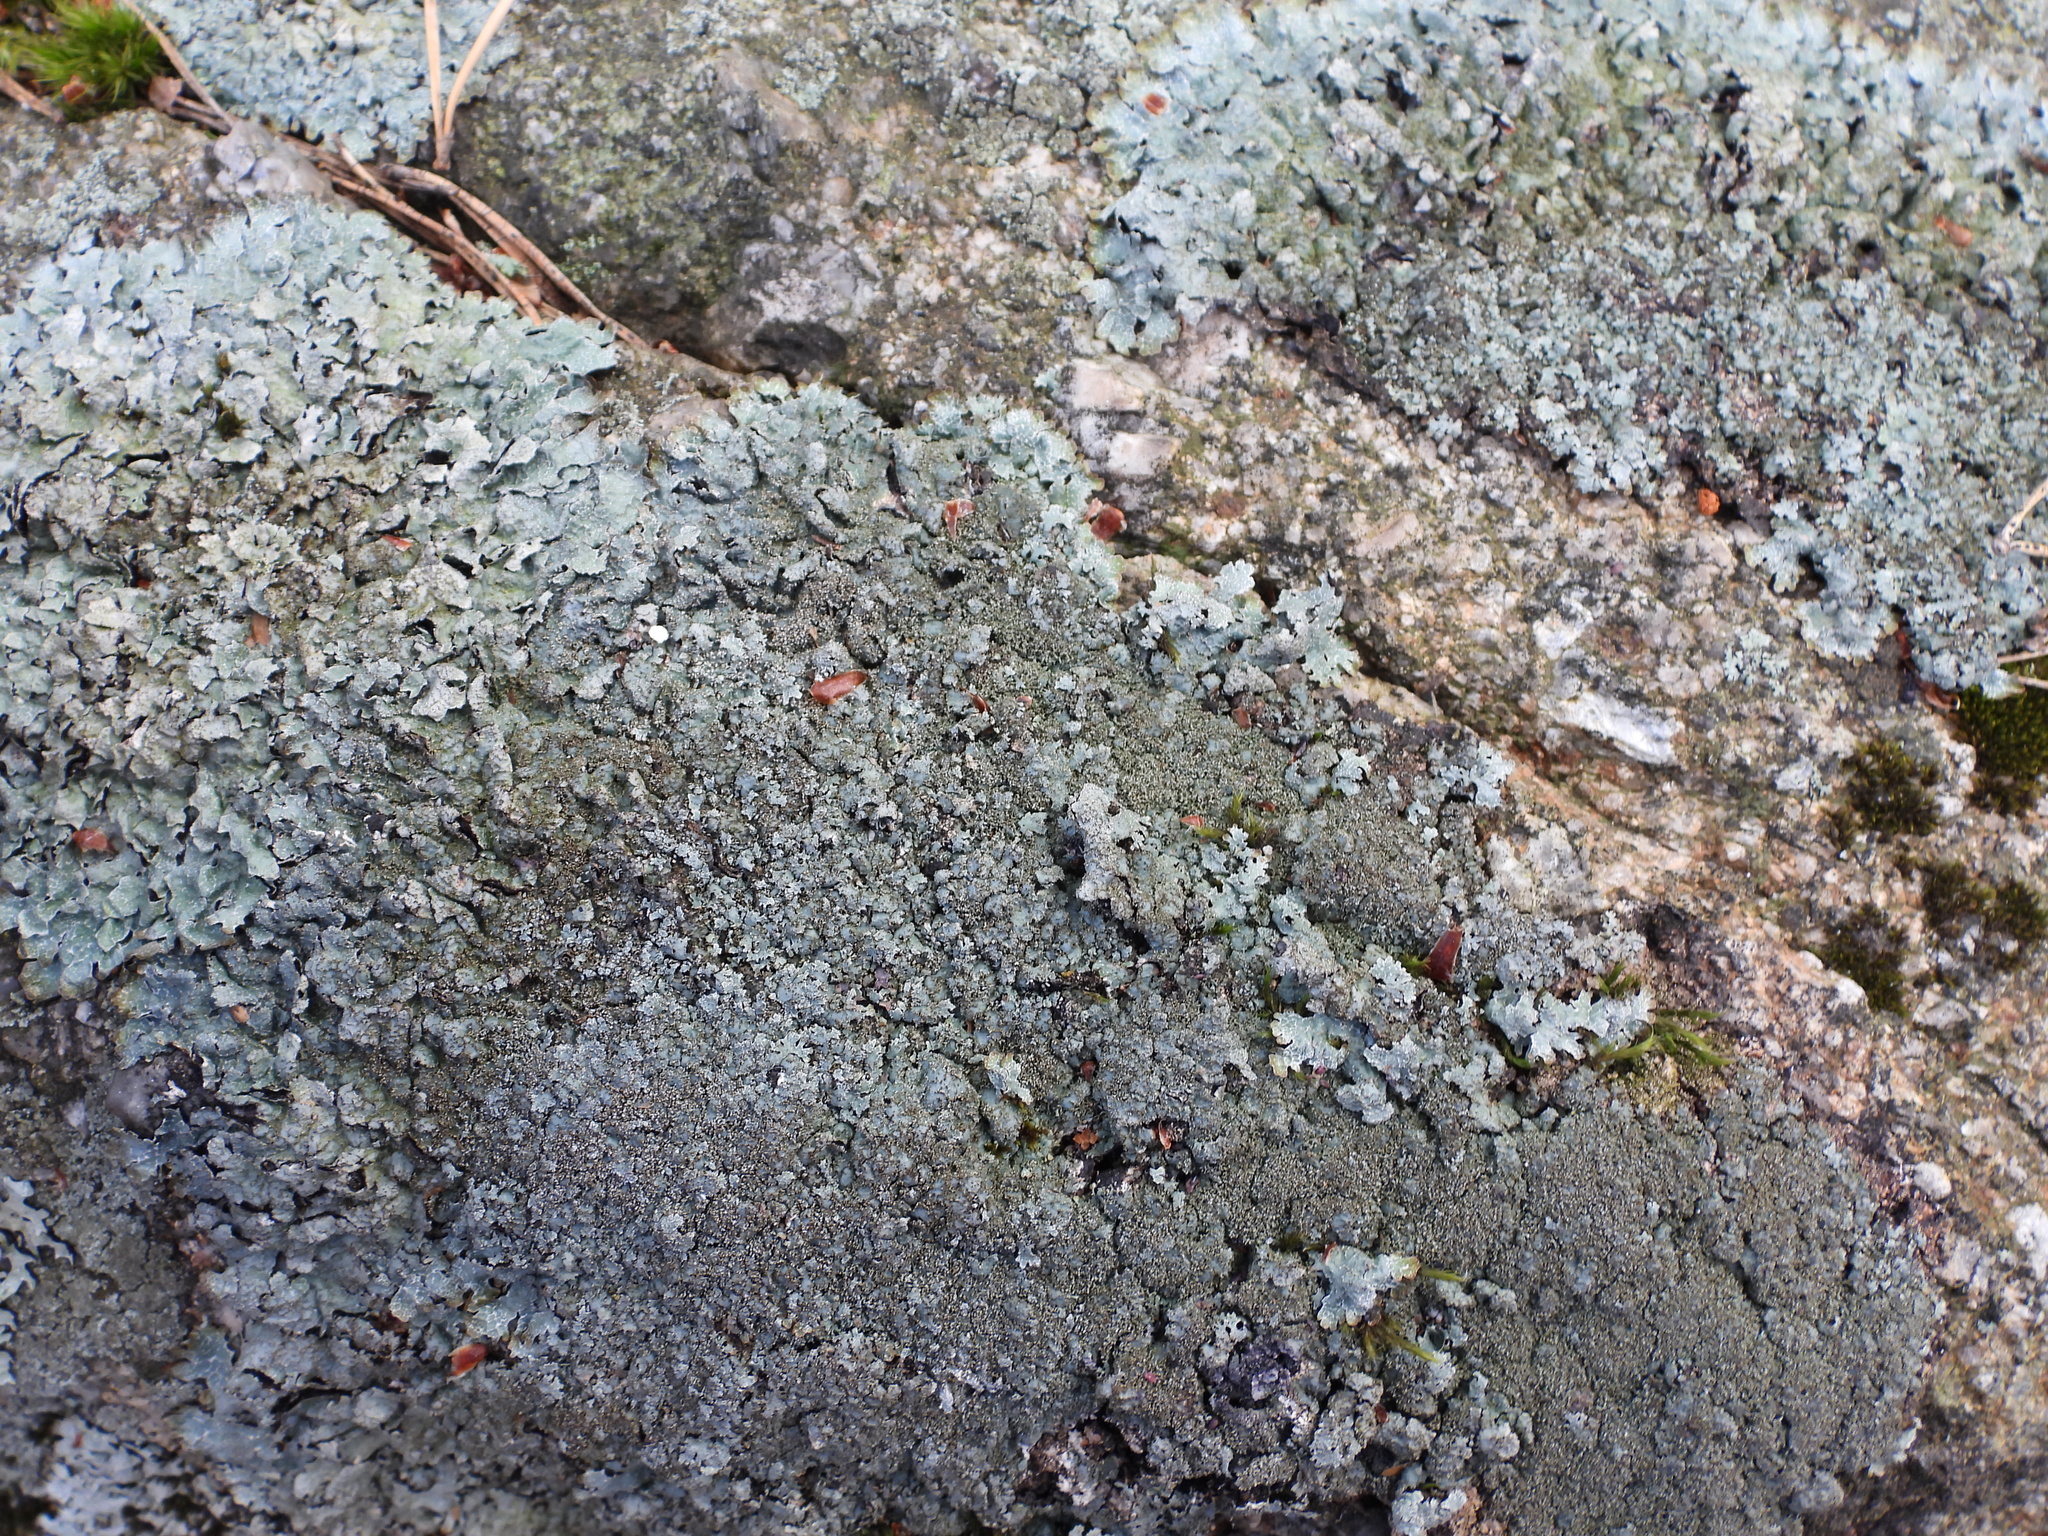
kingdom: Fungi
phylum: Ascomycota
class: Lecanoromycetes
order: Lecanorales
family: Parmeliaceae
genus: Parmelia
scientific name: Parmelia saxatilis
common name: Salted shield lichen
